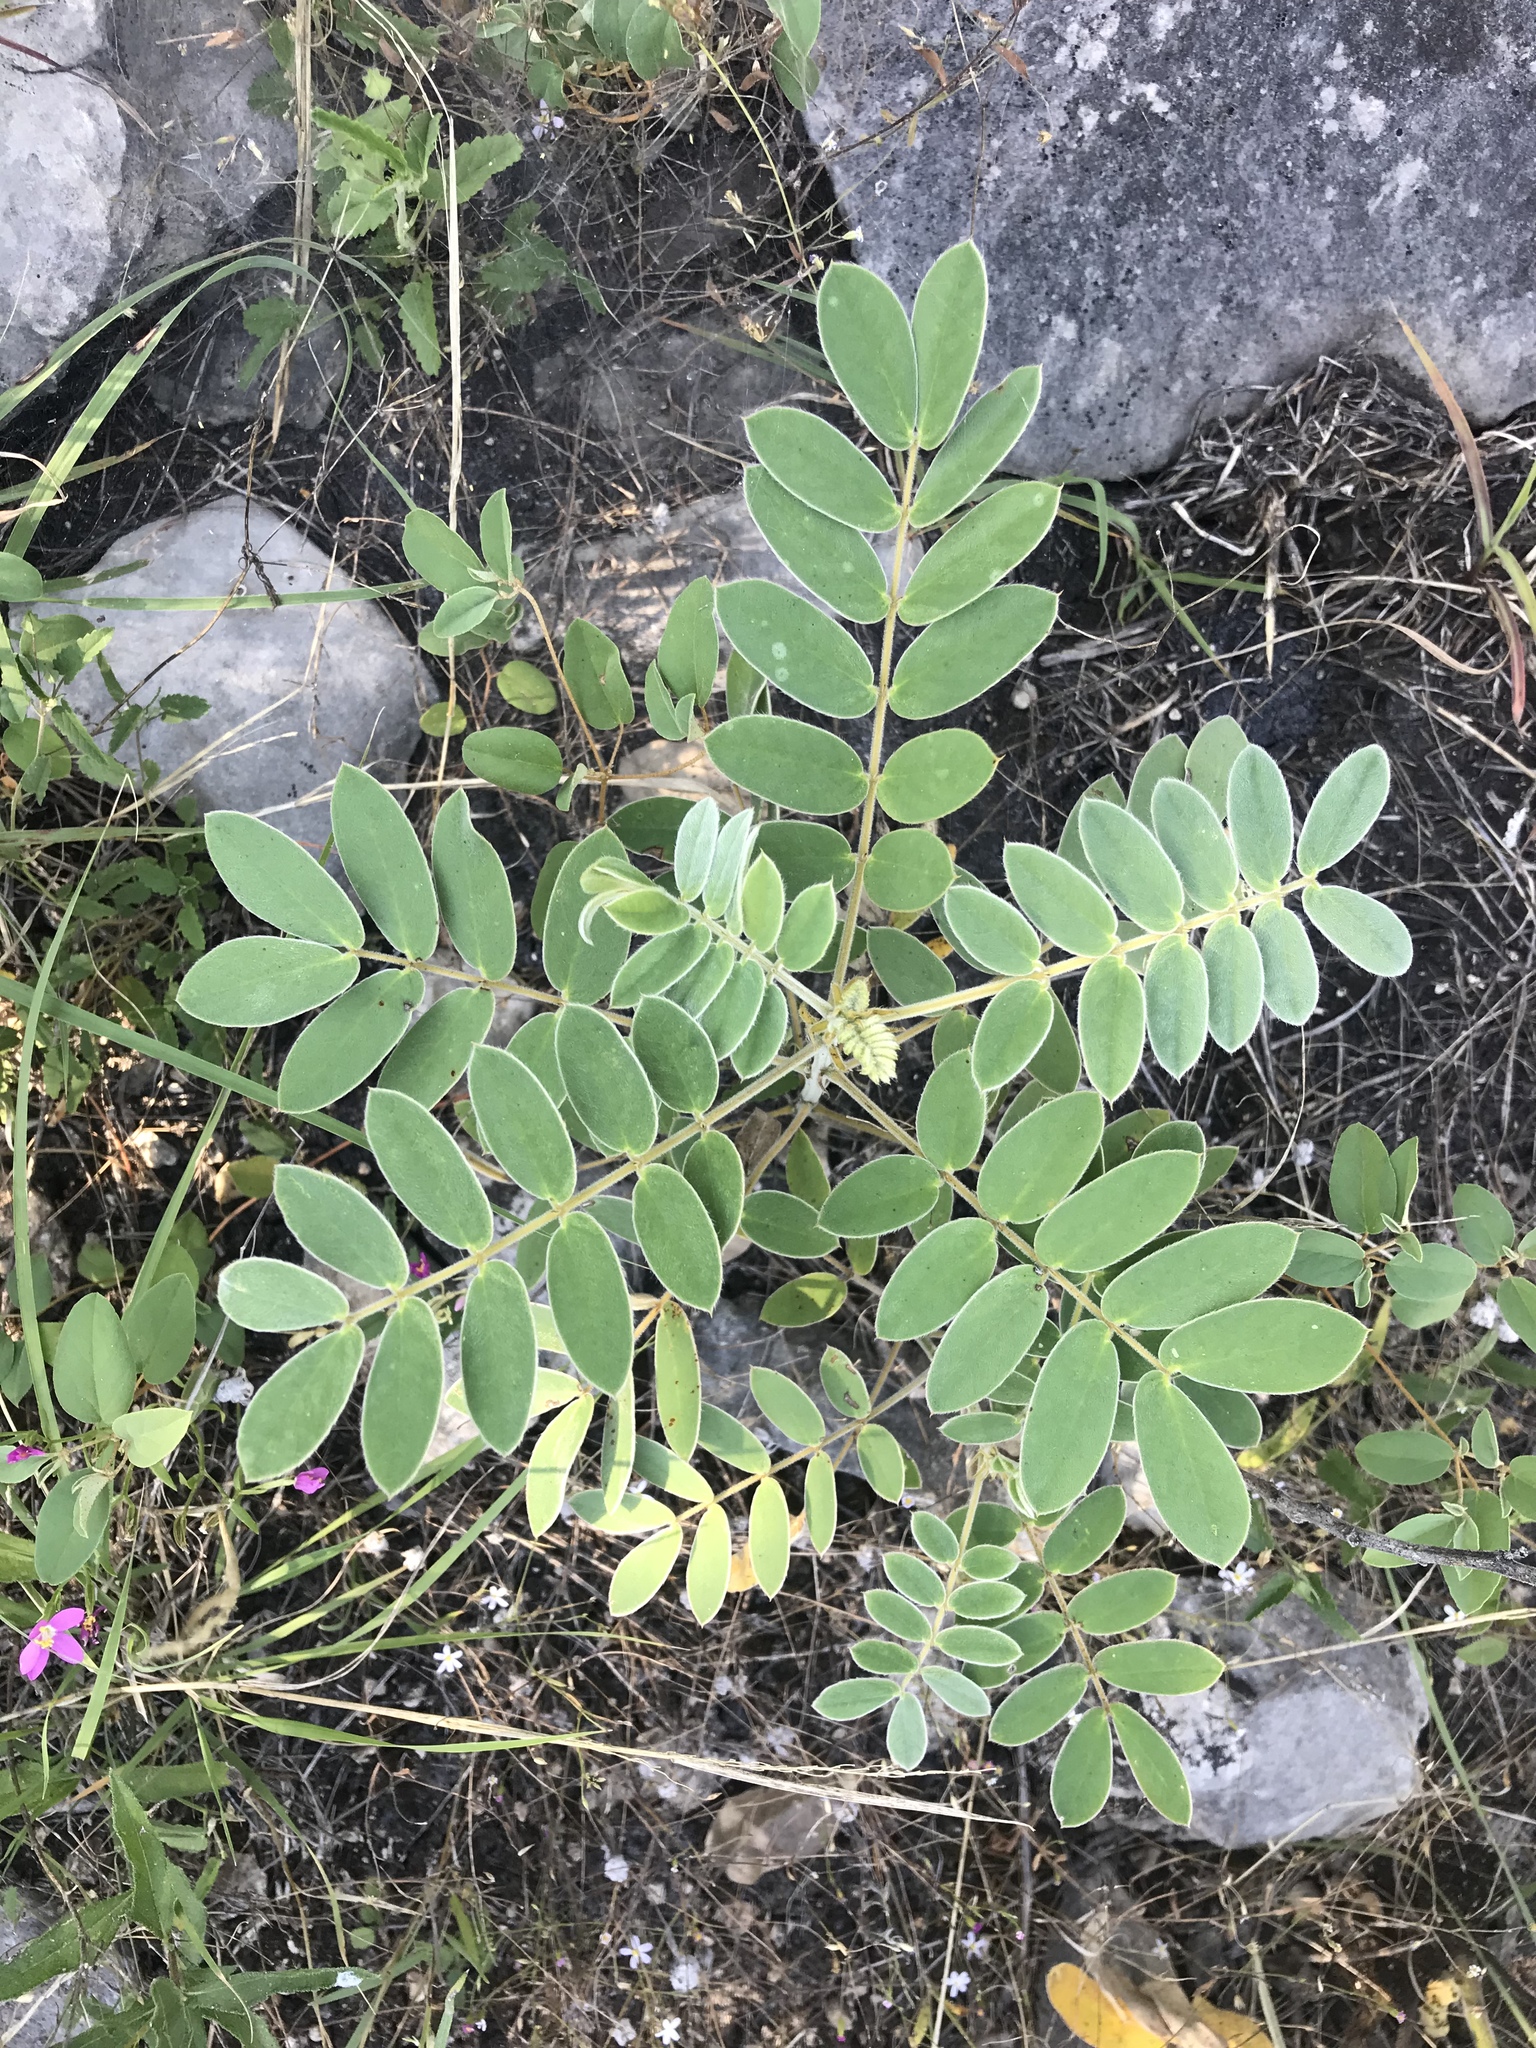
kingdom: Plantae
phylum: Tracheophyta
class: Magnoliopsida
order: Fabales
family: Fabaceae
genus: Senna
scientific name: Senna lindheimeriana
